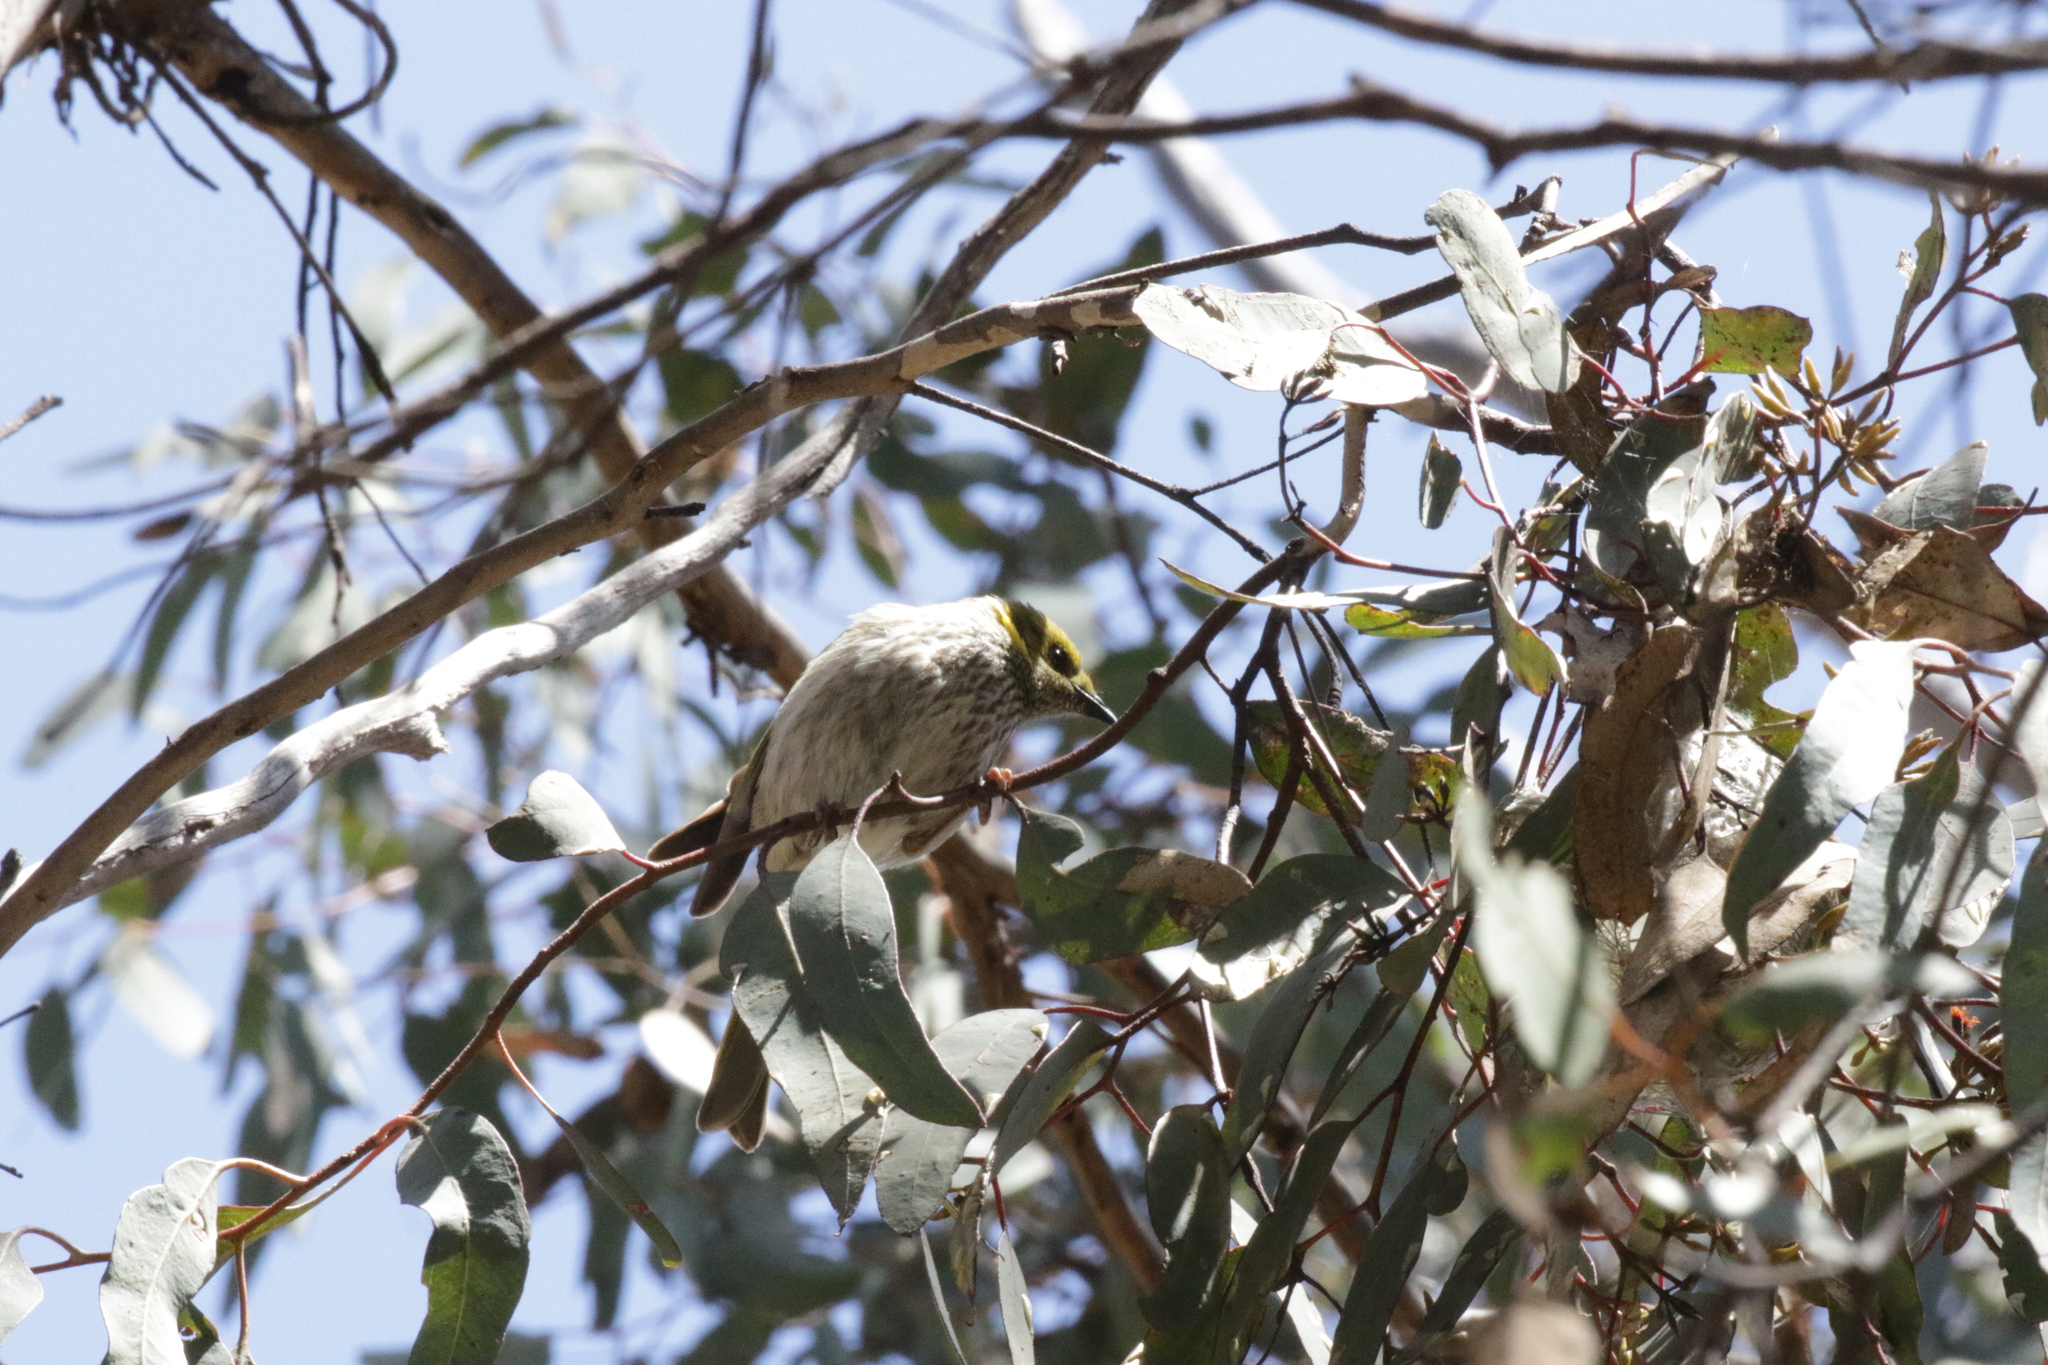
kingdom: Animalia
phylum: Chordata
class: Aves
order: Passeriformes
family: Meliphagidae
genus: Ptilotula
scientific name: Ptilotula ornata
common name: Yellow-plumed honeyeater
